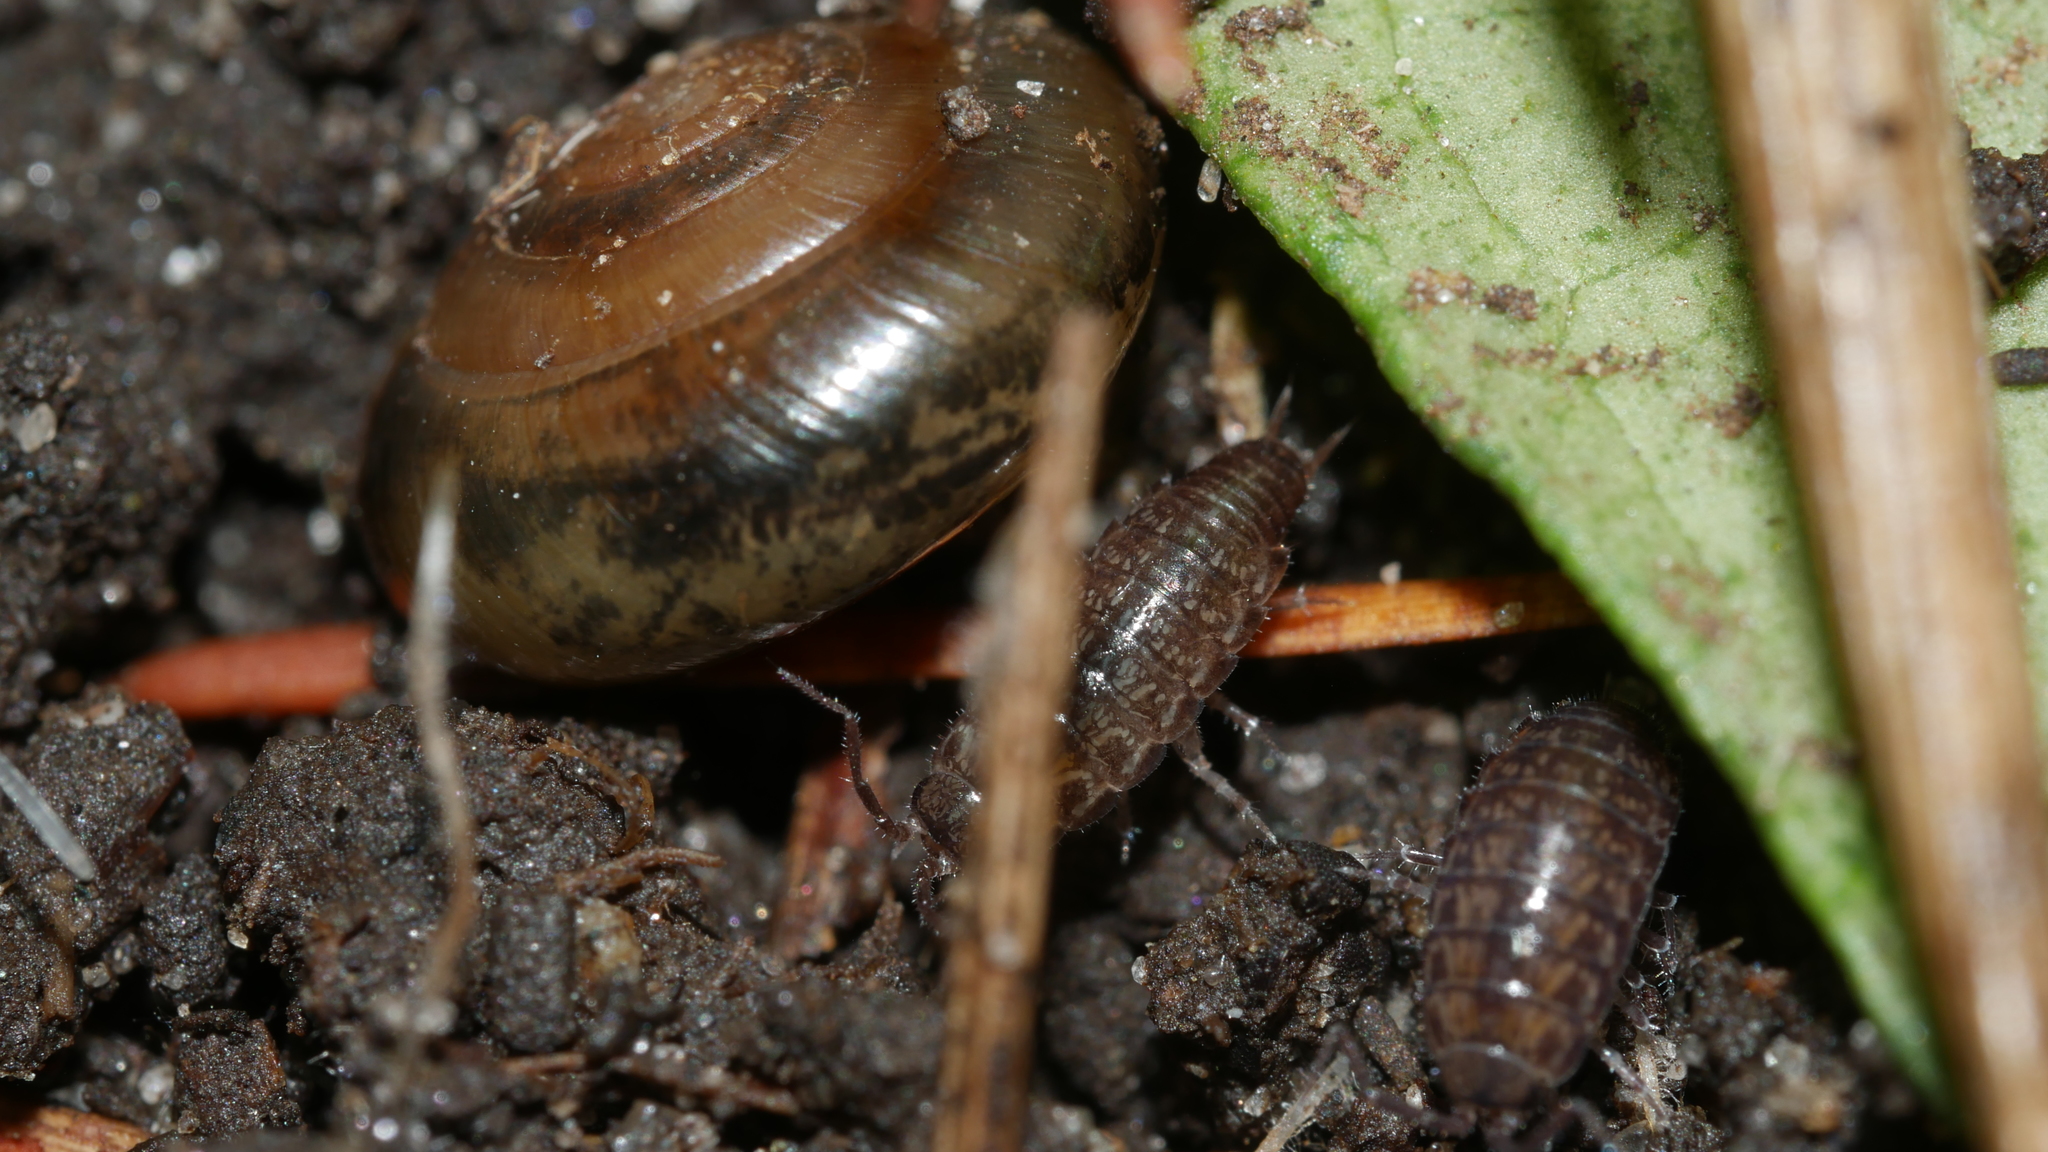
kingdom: Animalia
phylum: Arthropoda
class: Malacostraca
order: Isopoda
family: Philosciidae
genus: Chaetophiloscia
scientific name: Chaetophiloscia sicula
